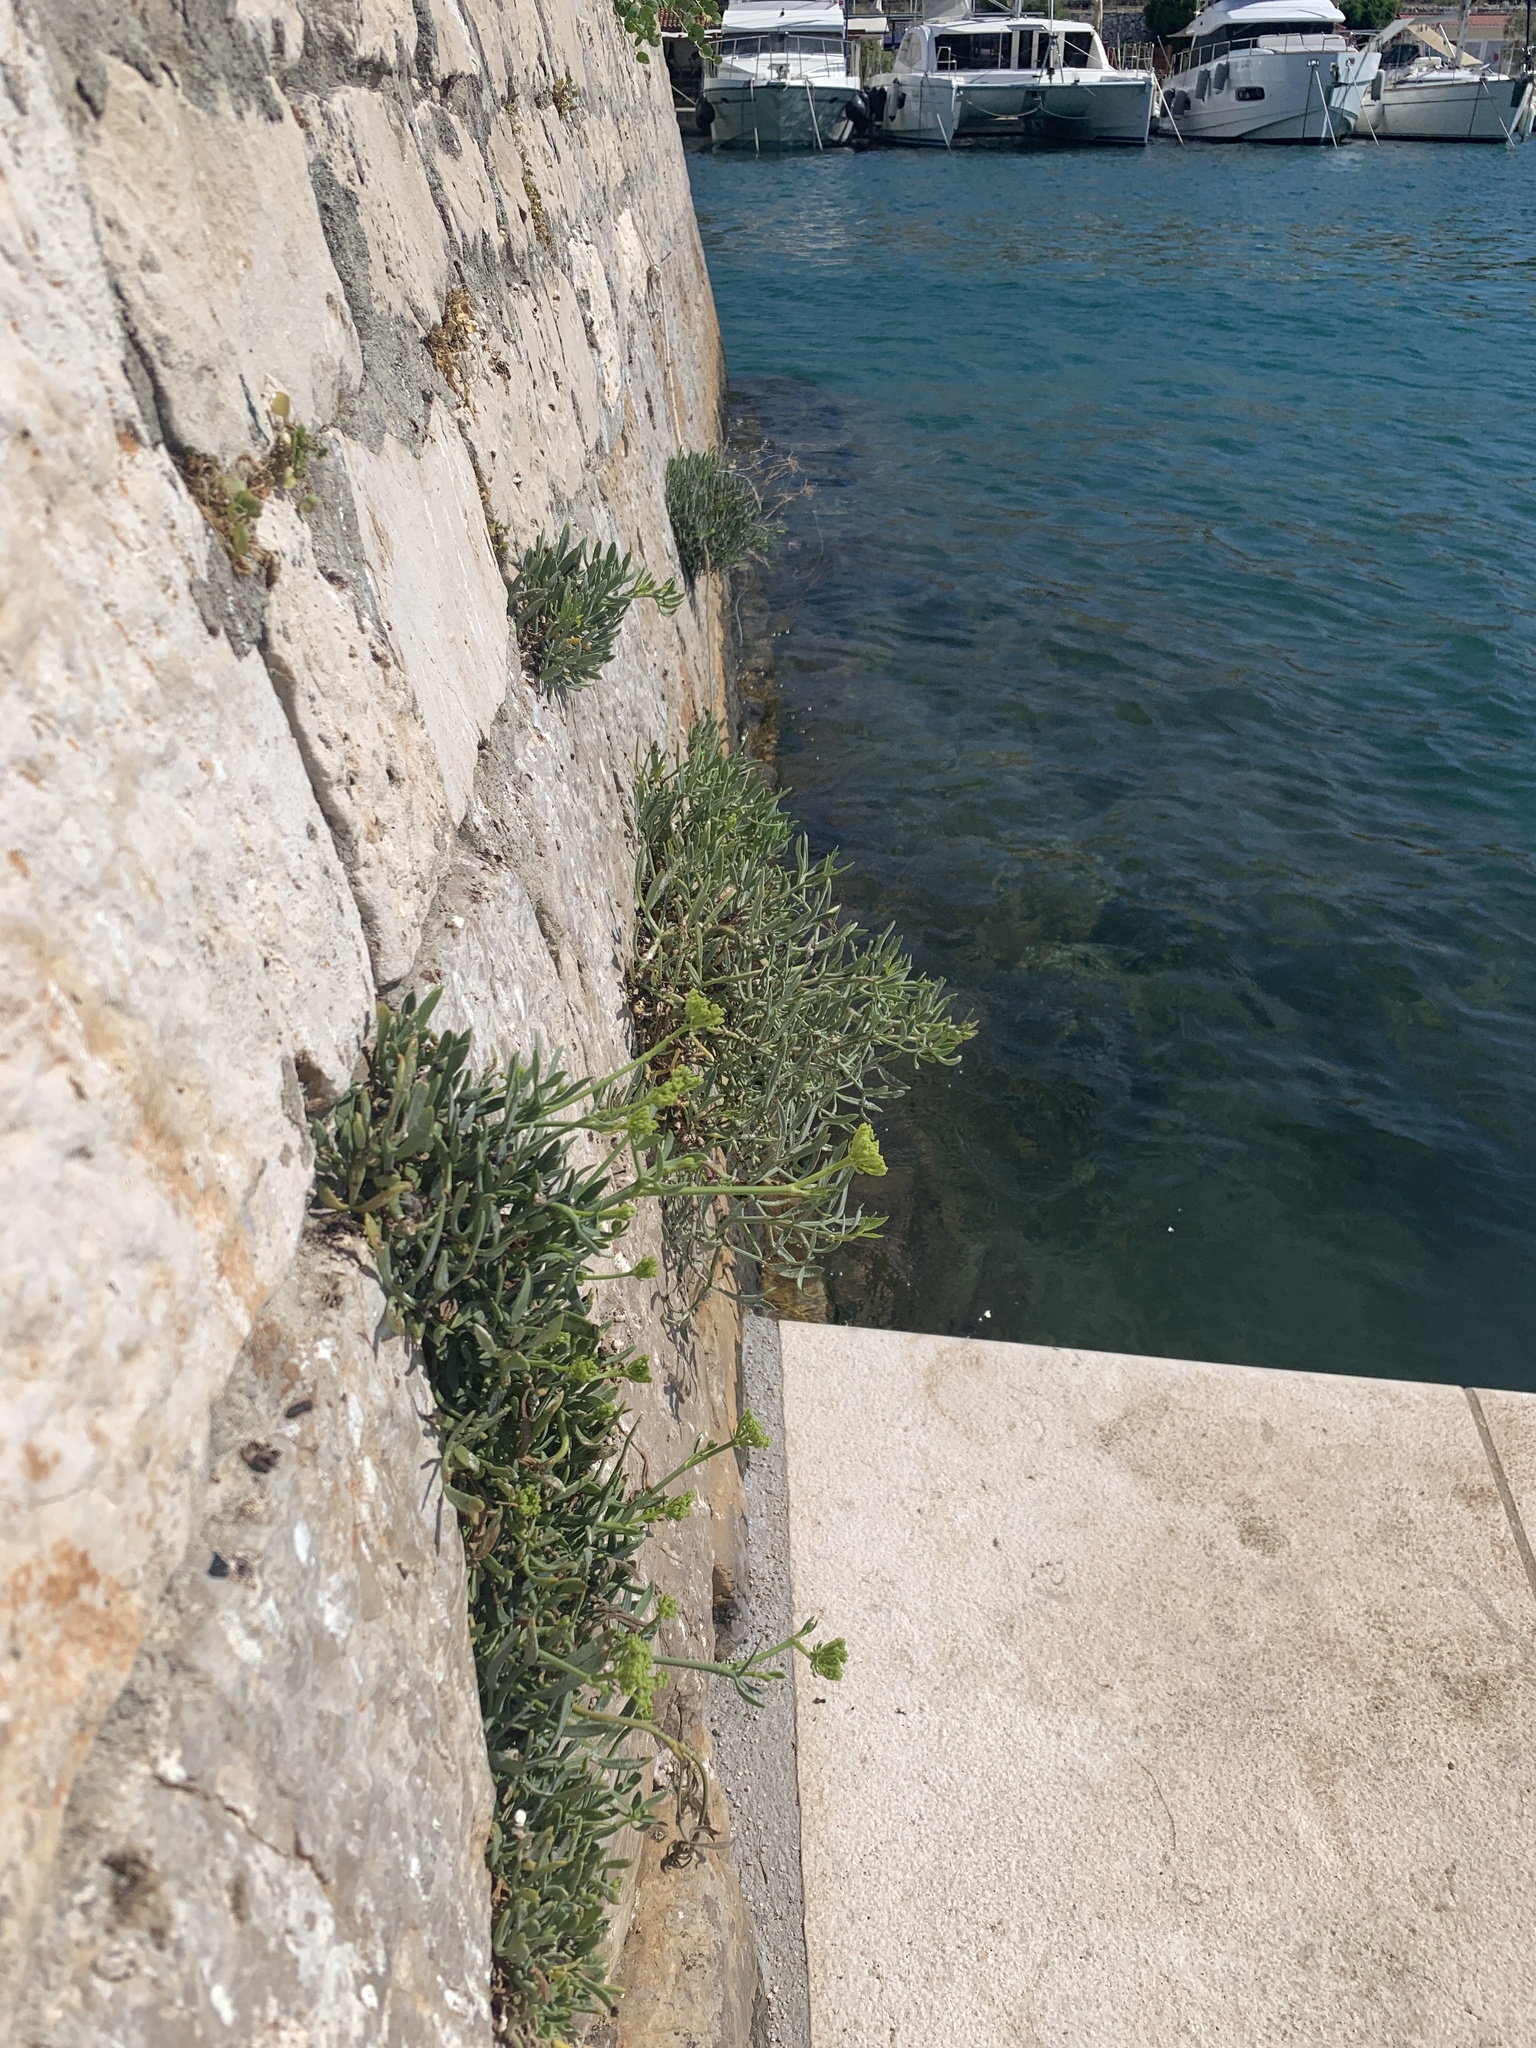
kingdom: Plantae
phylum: Tracheophyta
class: Magnoliopsida
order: Apiales
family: Apiaceae
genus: Crithmum
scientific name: Crithmum maritimum
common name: Rock samphire
